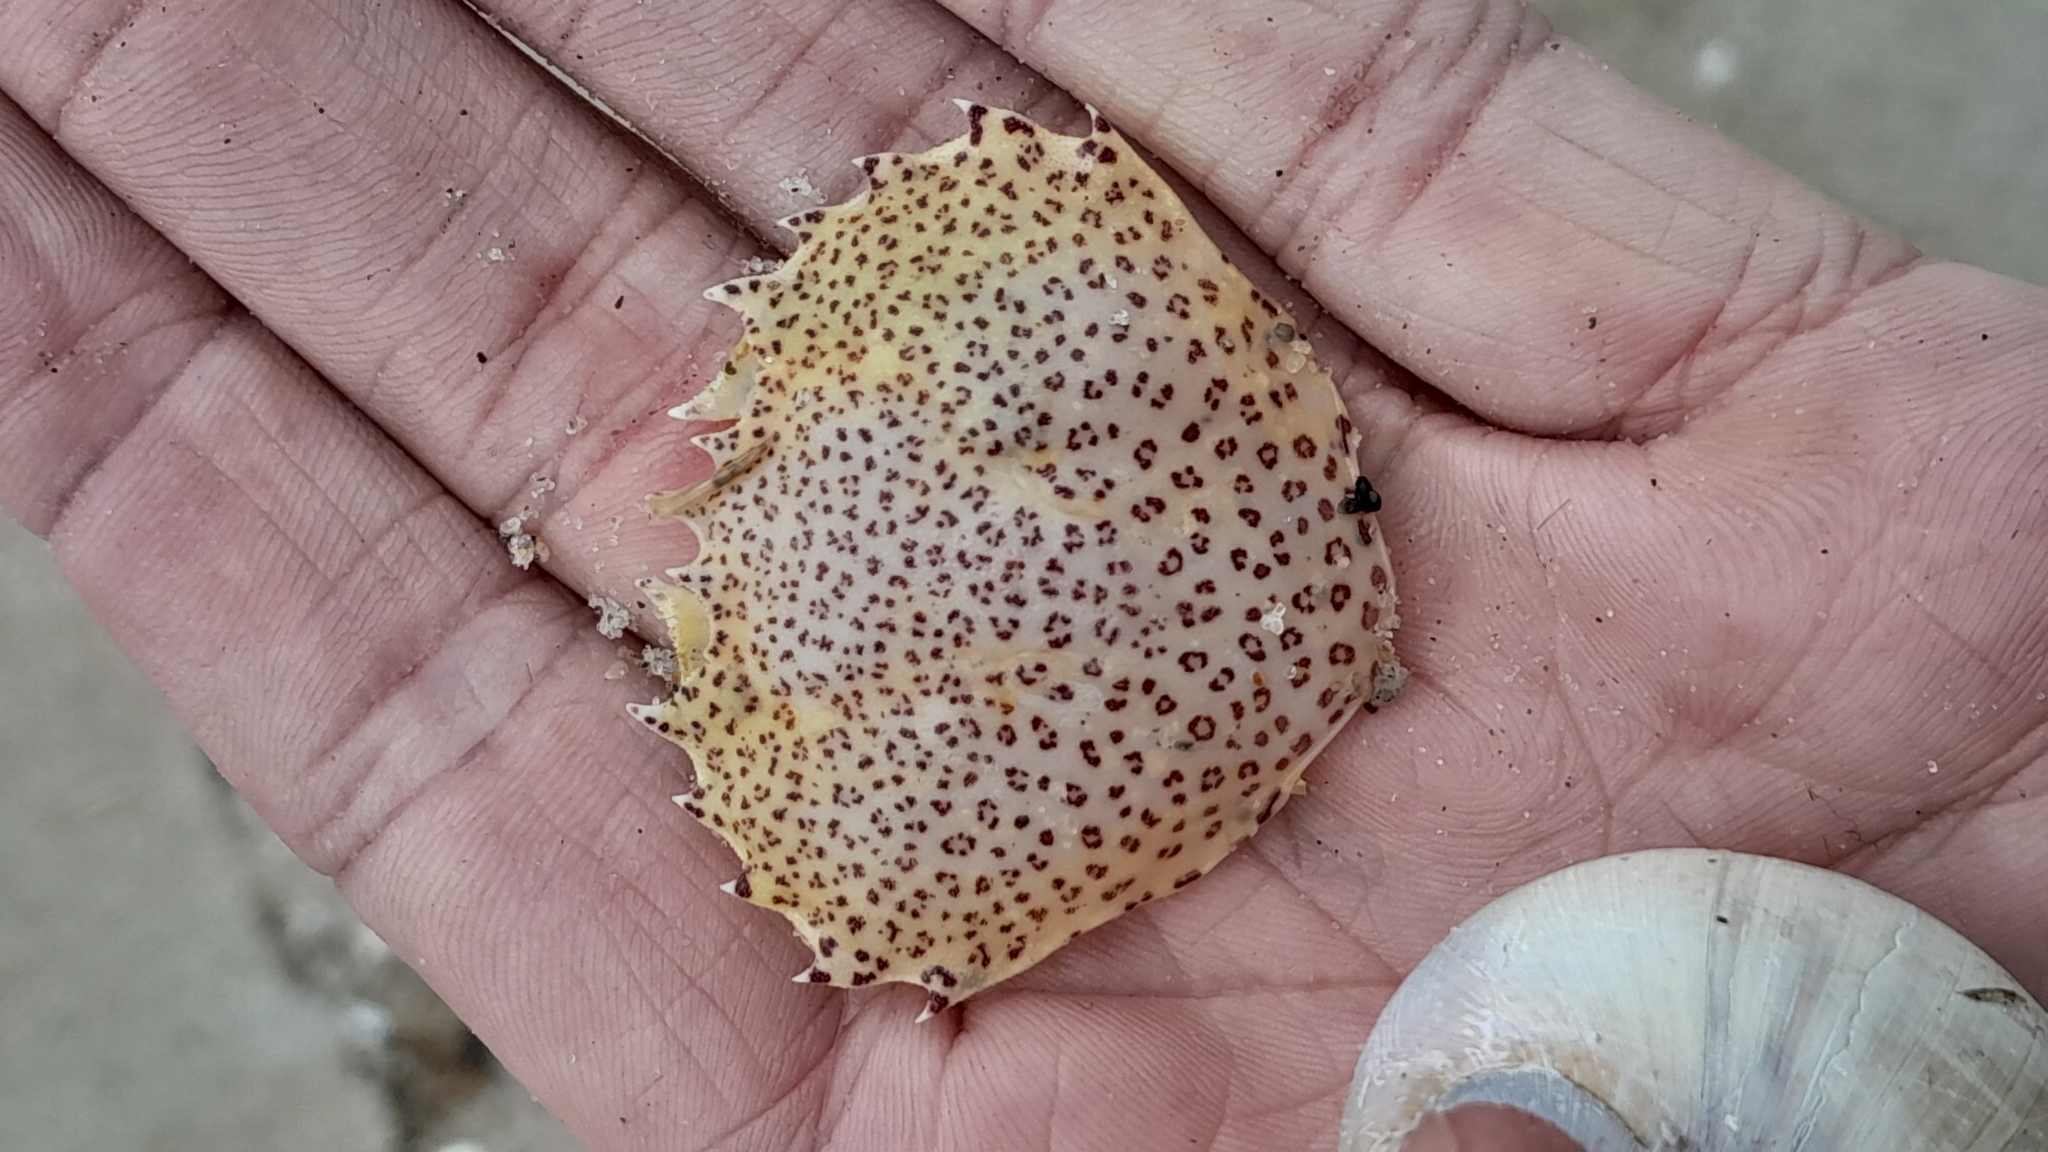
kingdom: Animalia
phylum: Arthropoda
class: Malacostraca
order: Decapoda
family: Ovalipidae
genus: Ovalipes
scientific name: Ovalipes ocellatus
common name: Lady crab
